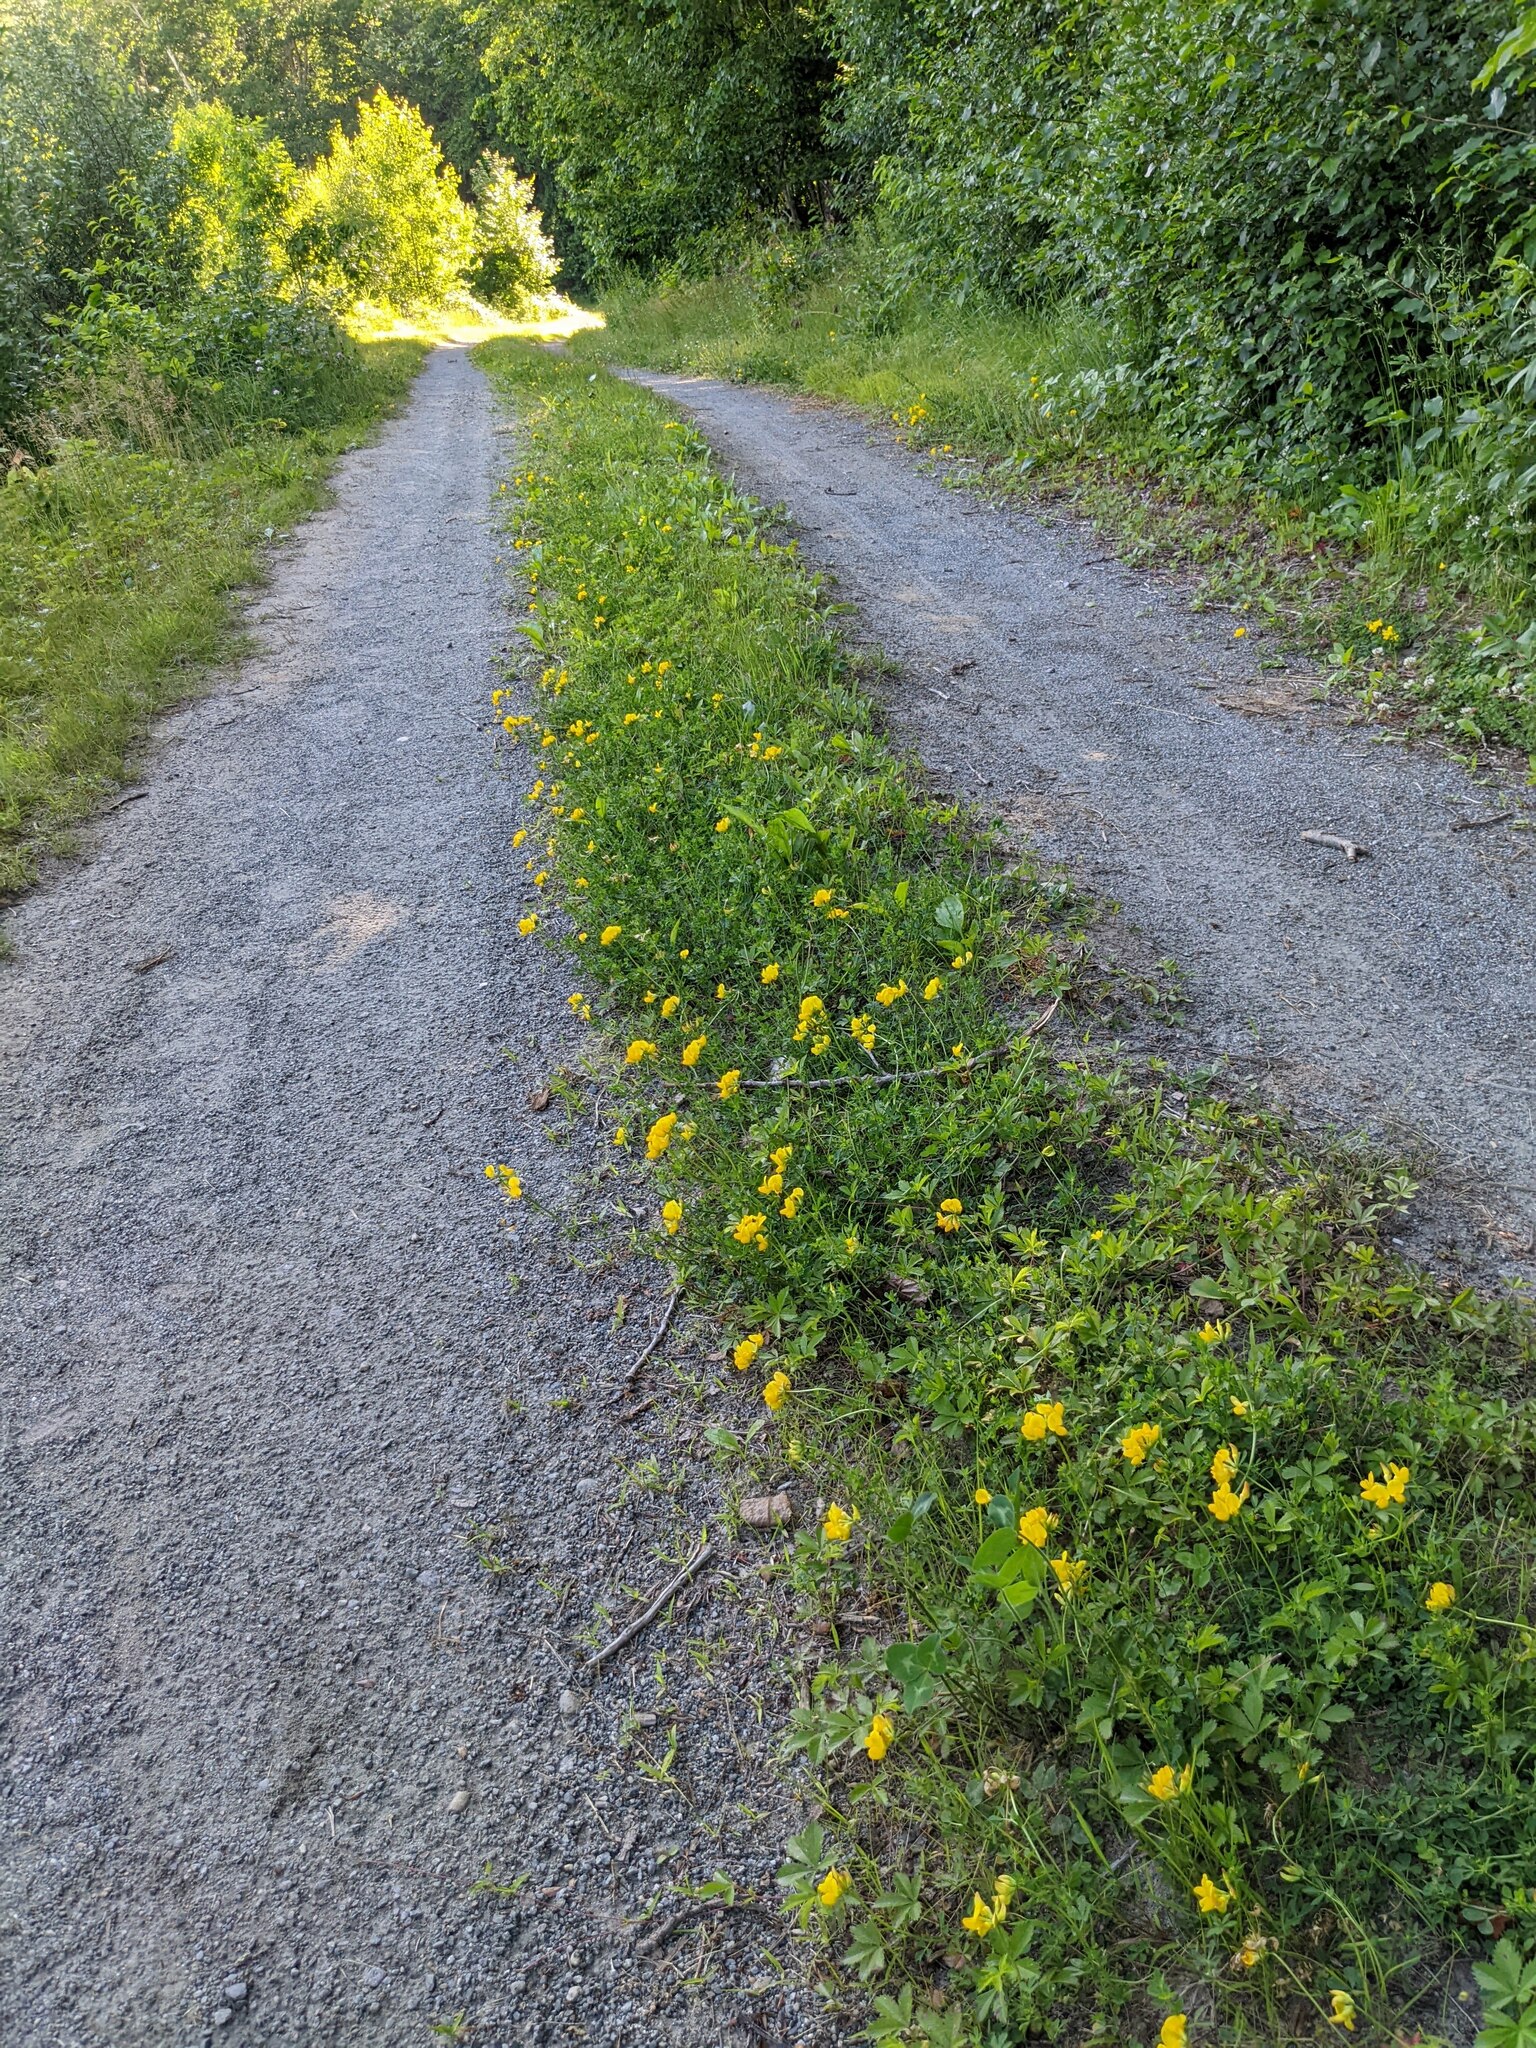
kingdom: Plantae
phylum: Tracheophyta
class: Magnoliopsida
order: Fabales
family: Fabaceae
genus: Lotus
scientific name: Lotus corniculatus
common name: Common bird's-foot-trefoil
